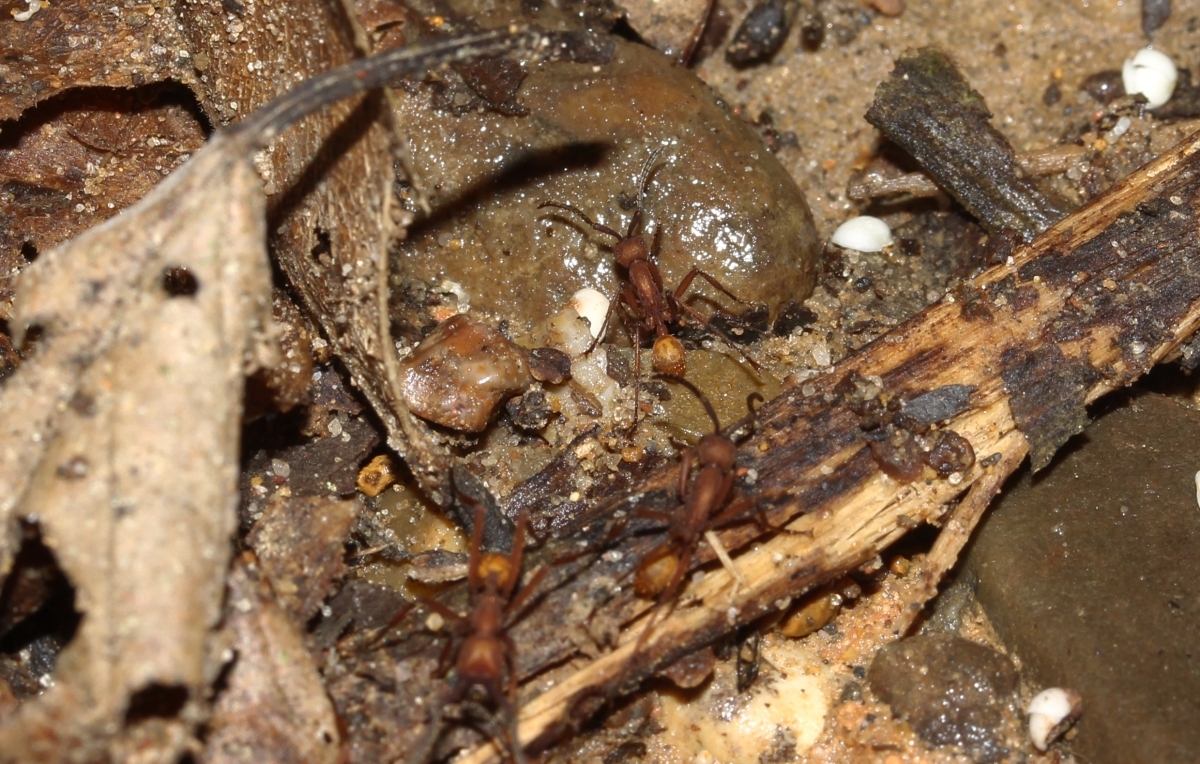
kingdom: Animalia
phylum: Arthropoda
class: Insecta
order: Hymenoptera
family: Formicidae
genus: Eciton
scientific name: Eciton
